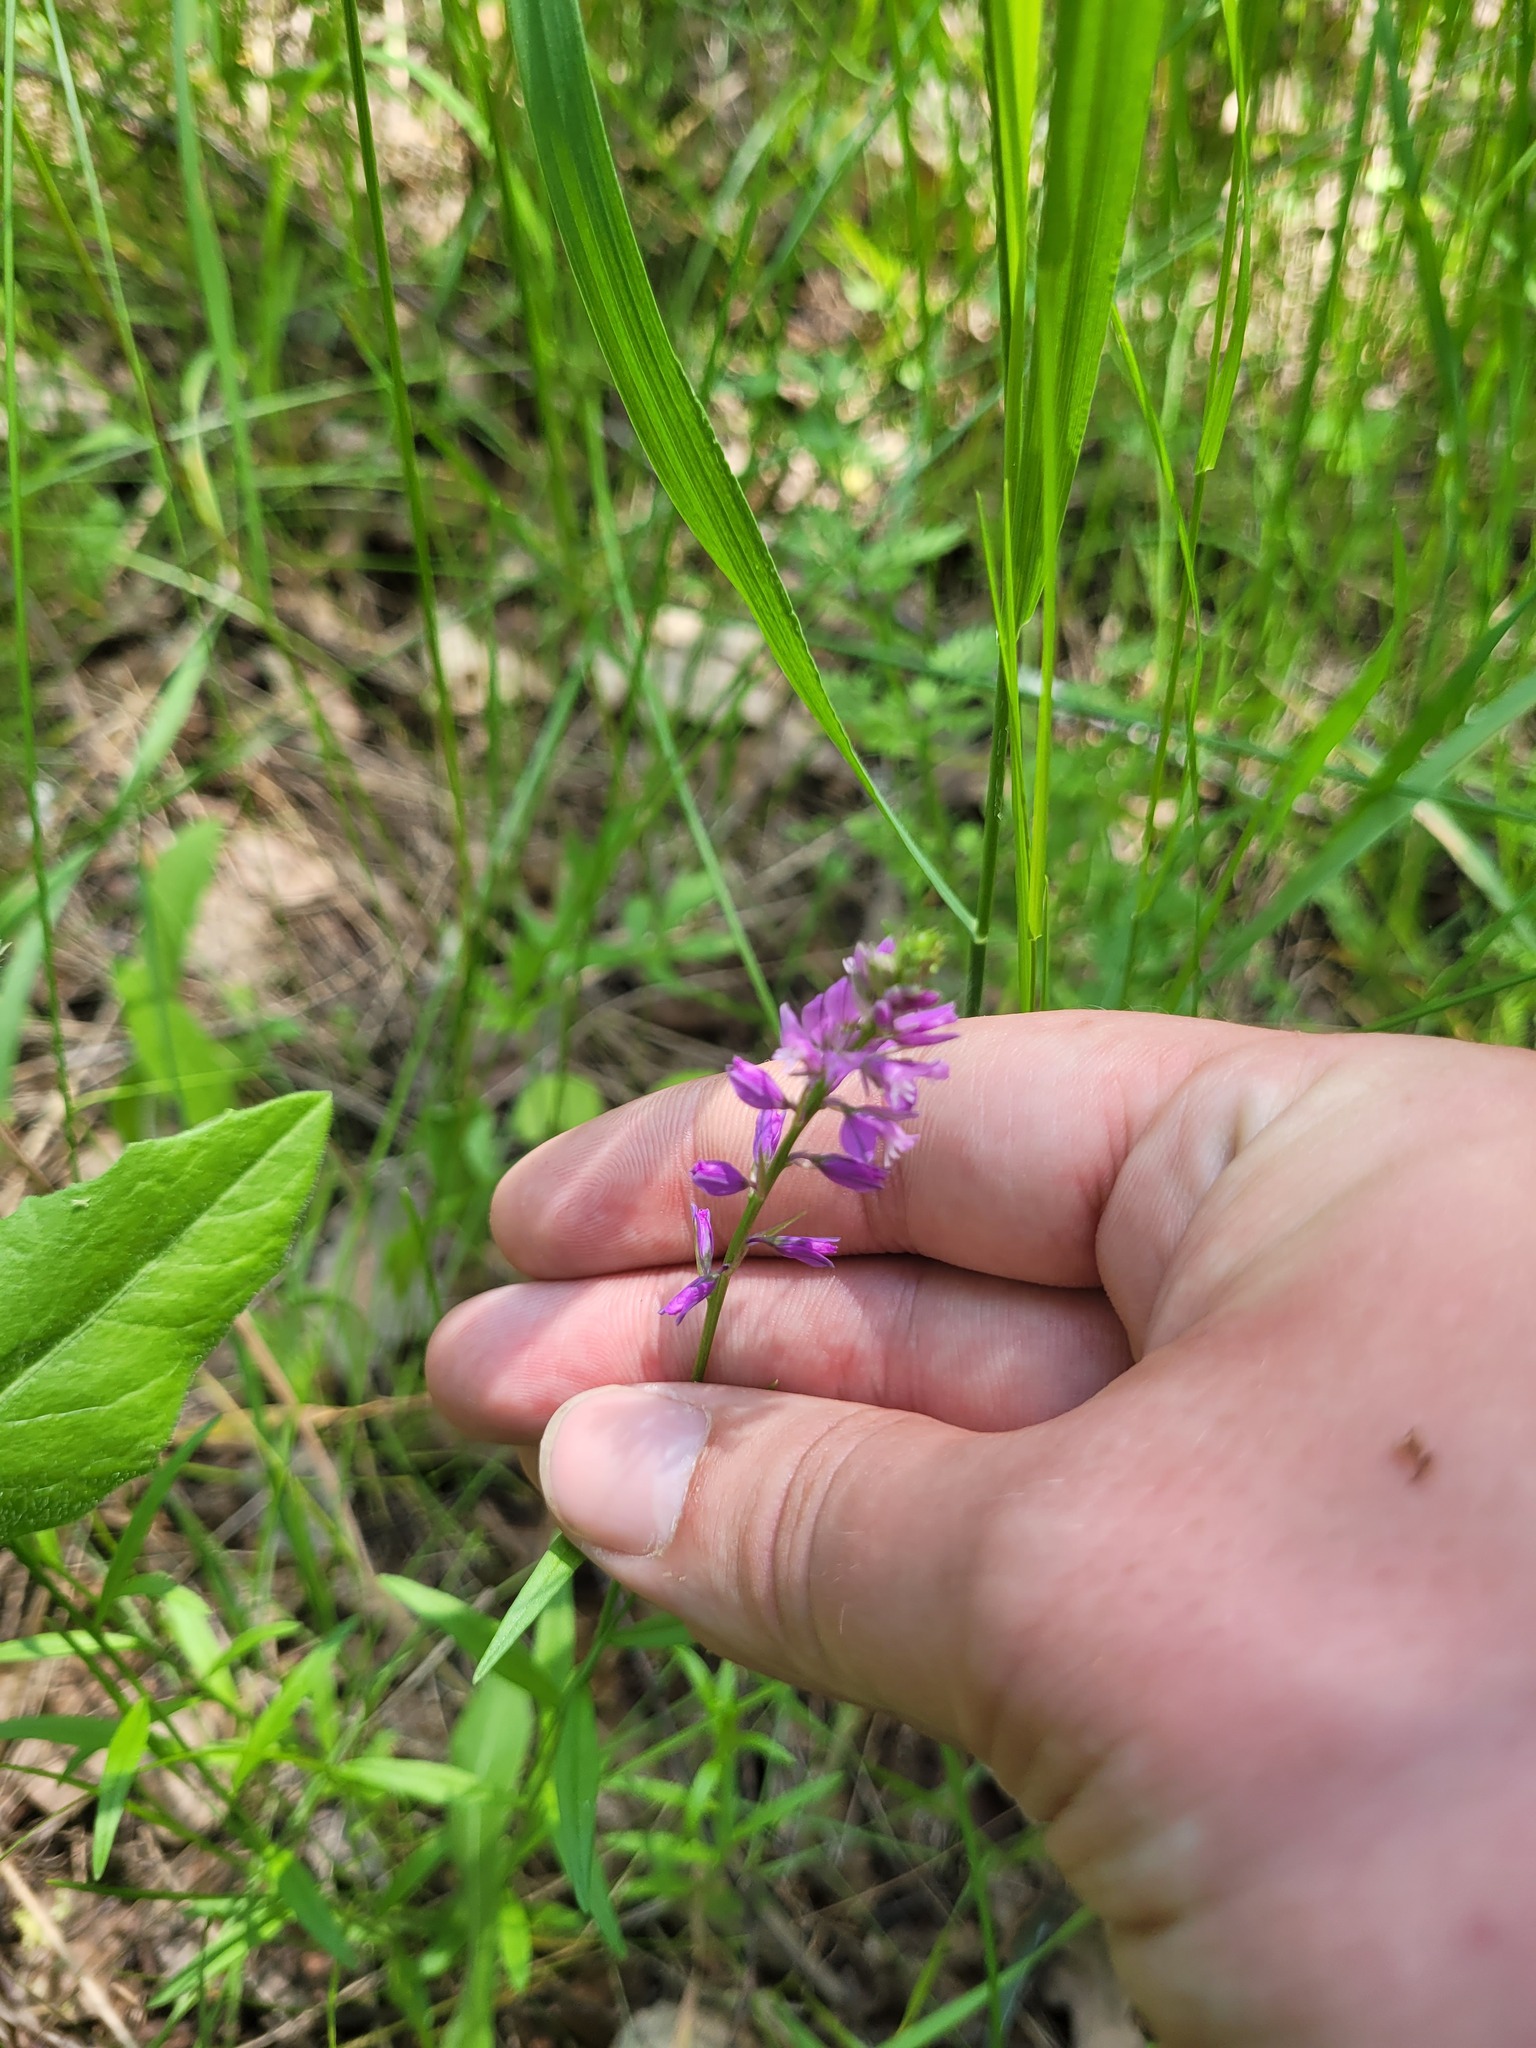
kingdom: Plantae
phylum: Tracheophyta
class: Magnoliopsida
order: Fabales
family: Polygalaceae
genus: Polygala
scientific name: Polygala comosa
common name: Tufted milkwort
